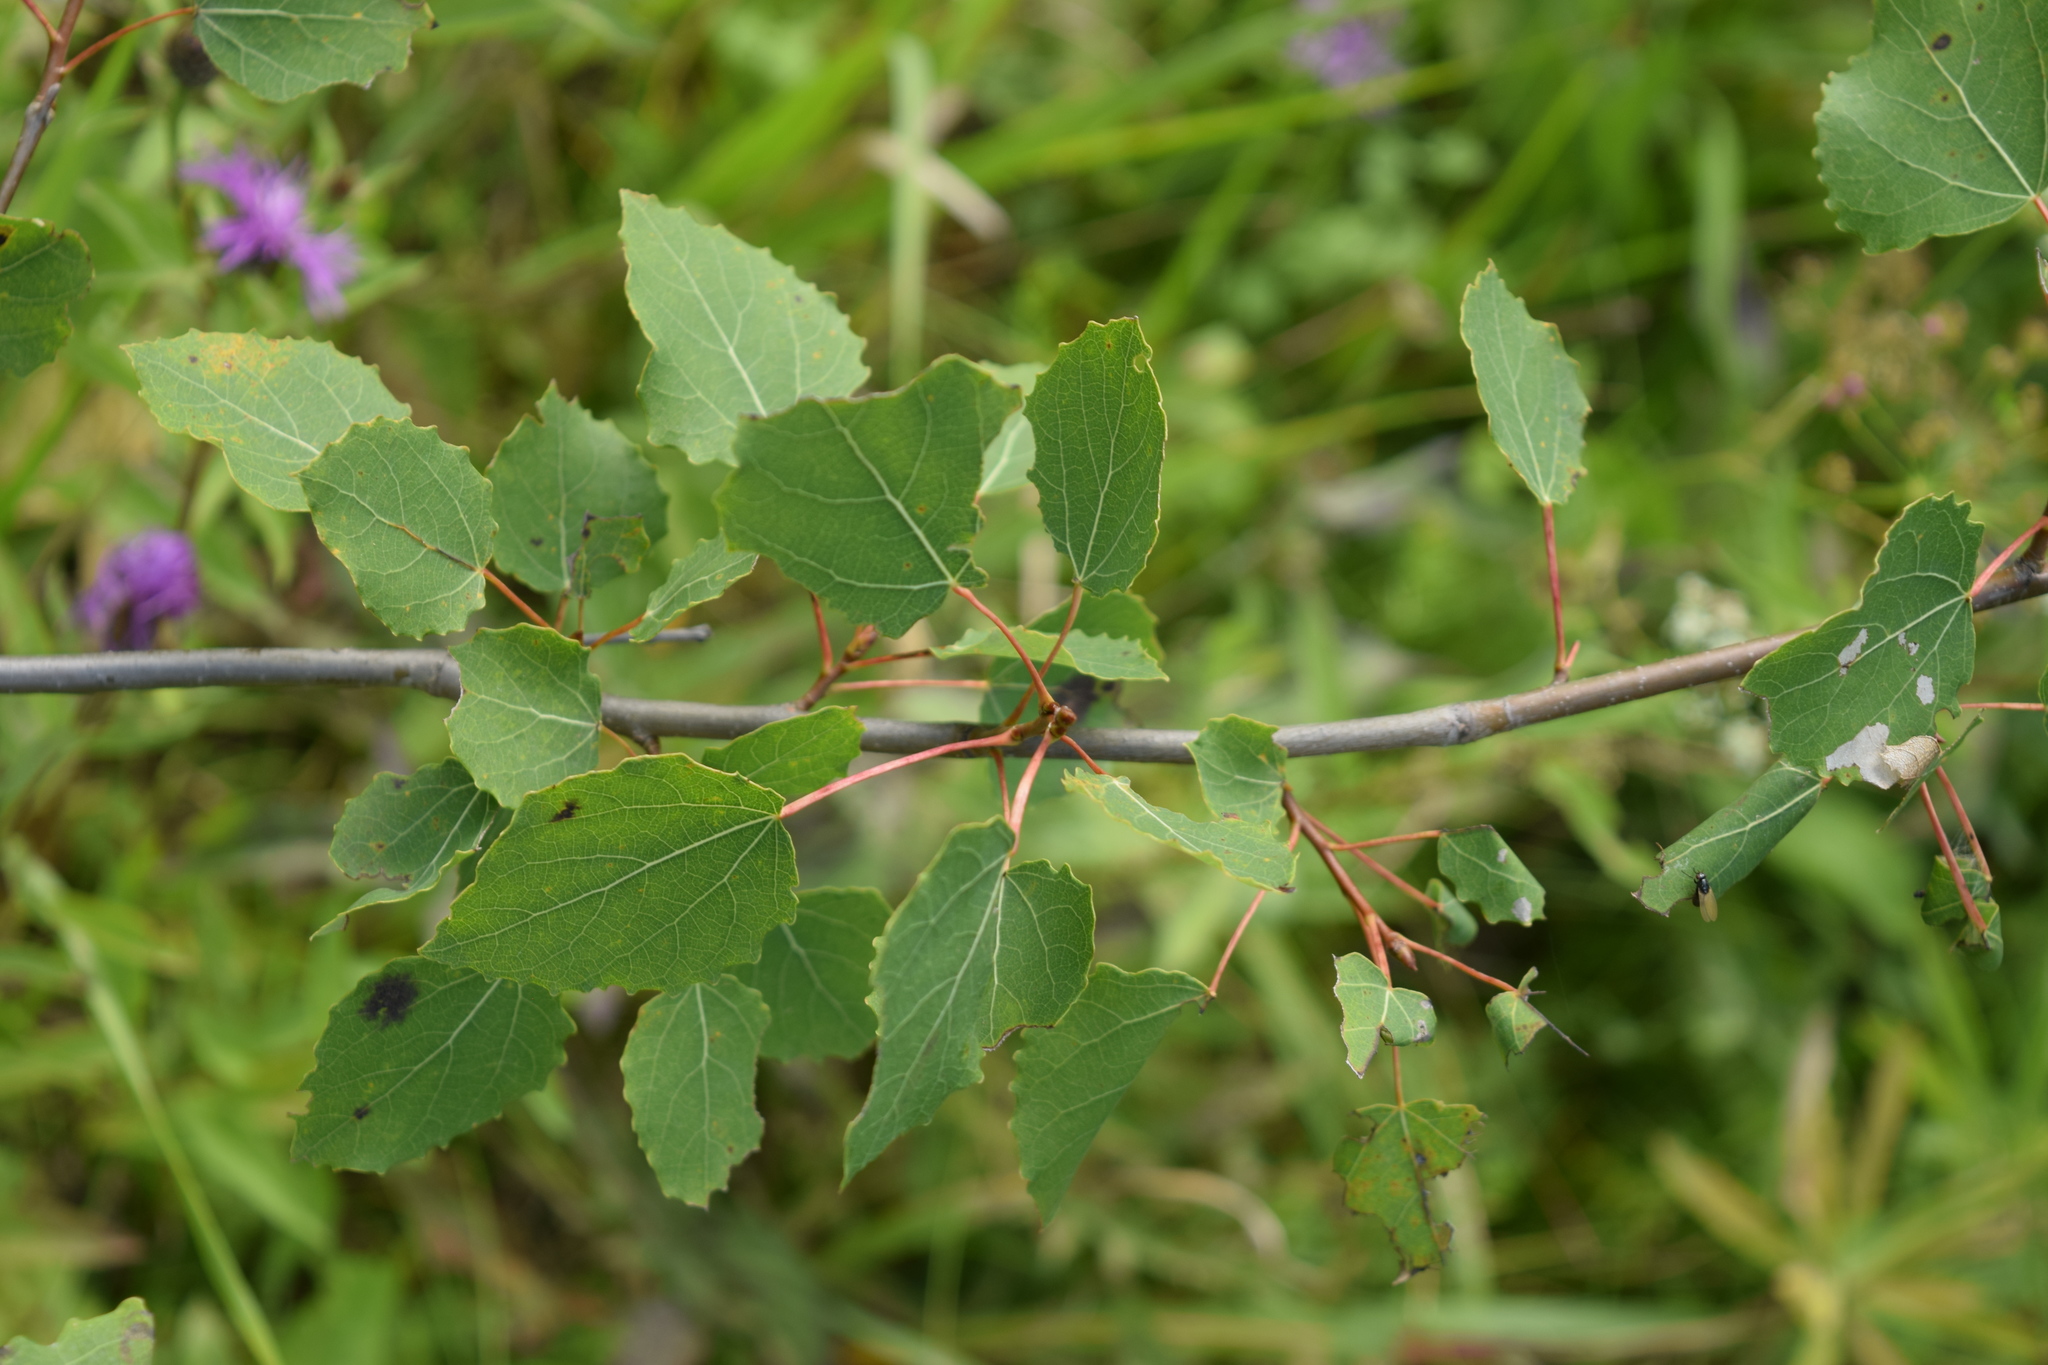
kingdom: Plantae
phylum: Tracheophyta
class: Magnoliopsida
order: Malpighiales
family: Salicaceae
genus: Populus
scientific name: Populus tremula
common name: European aspen
